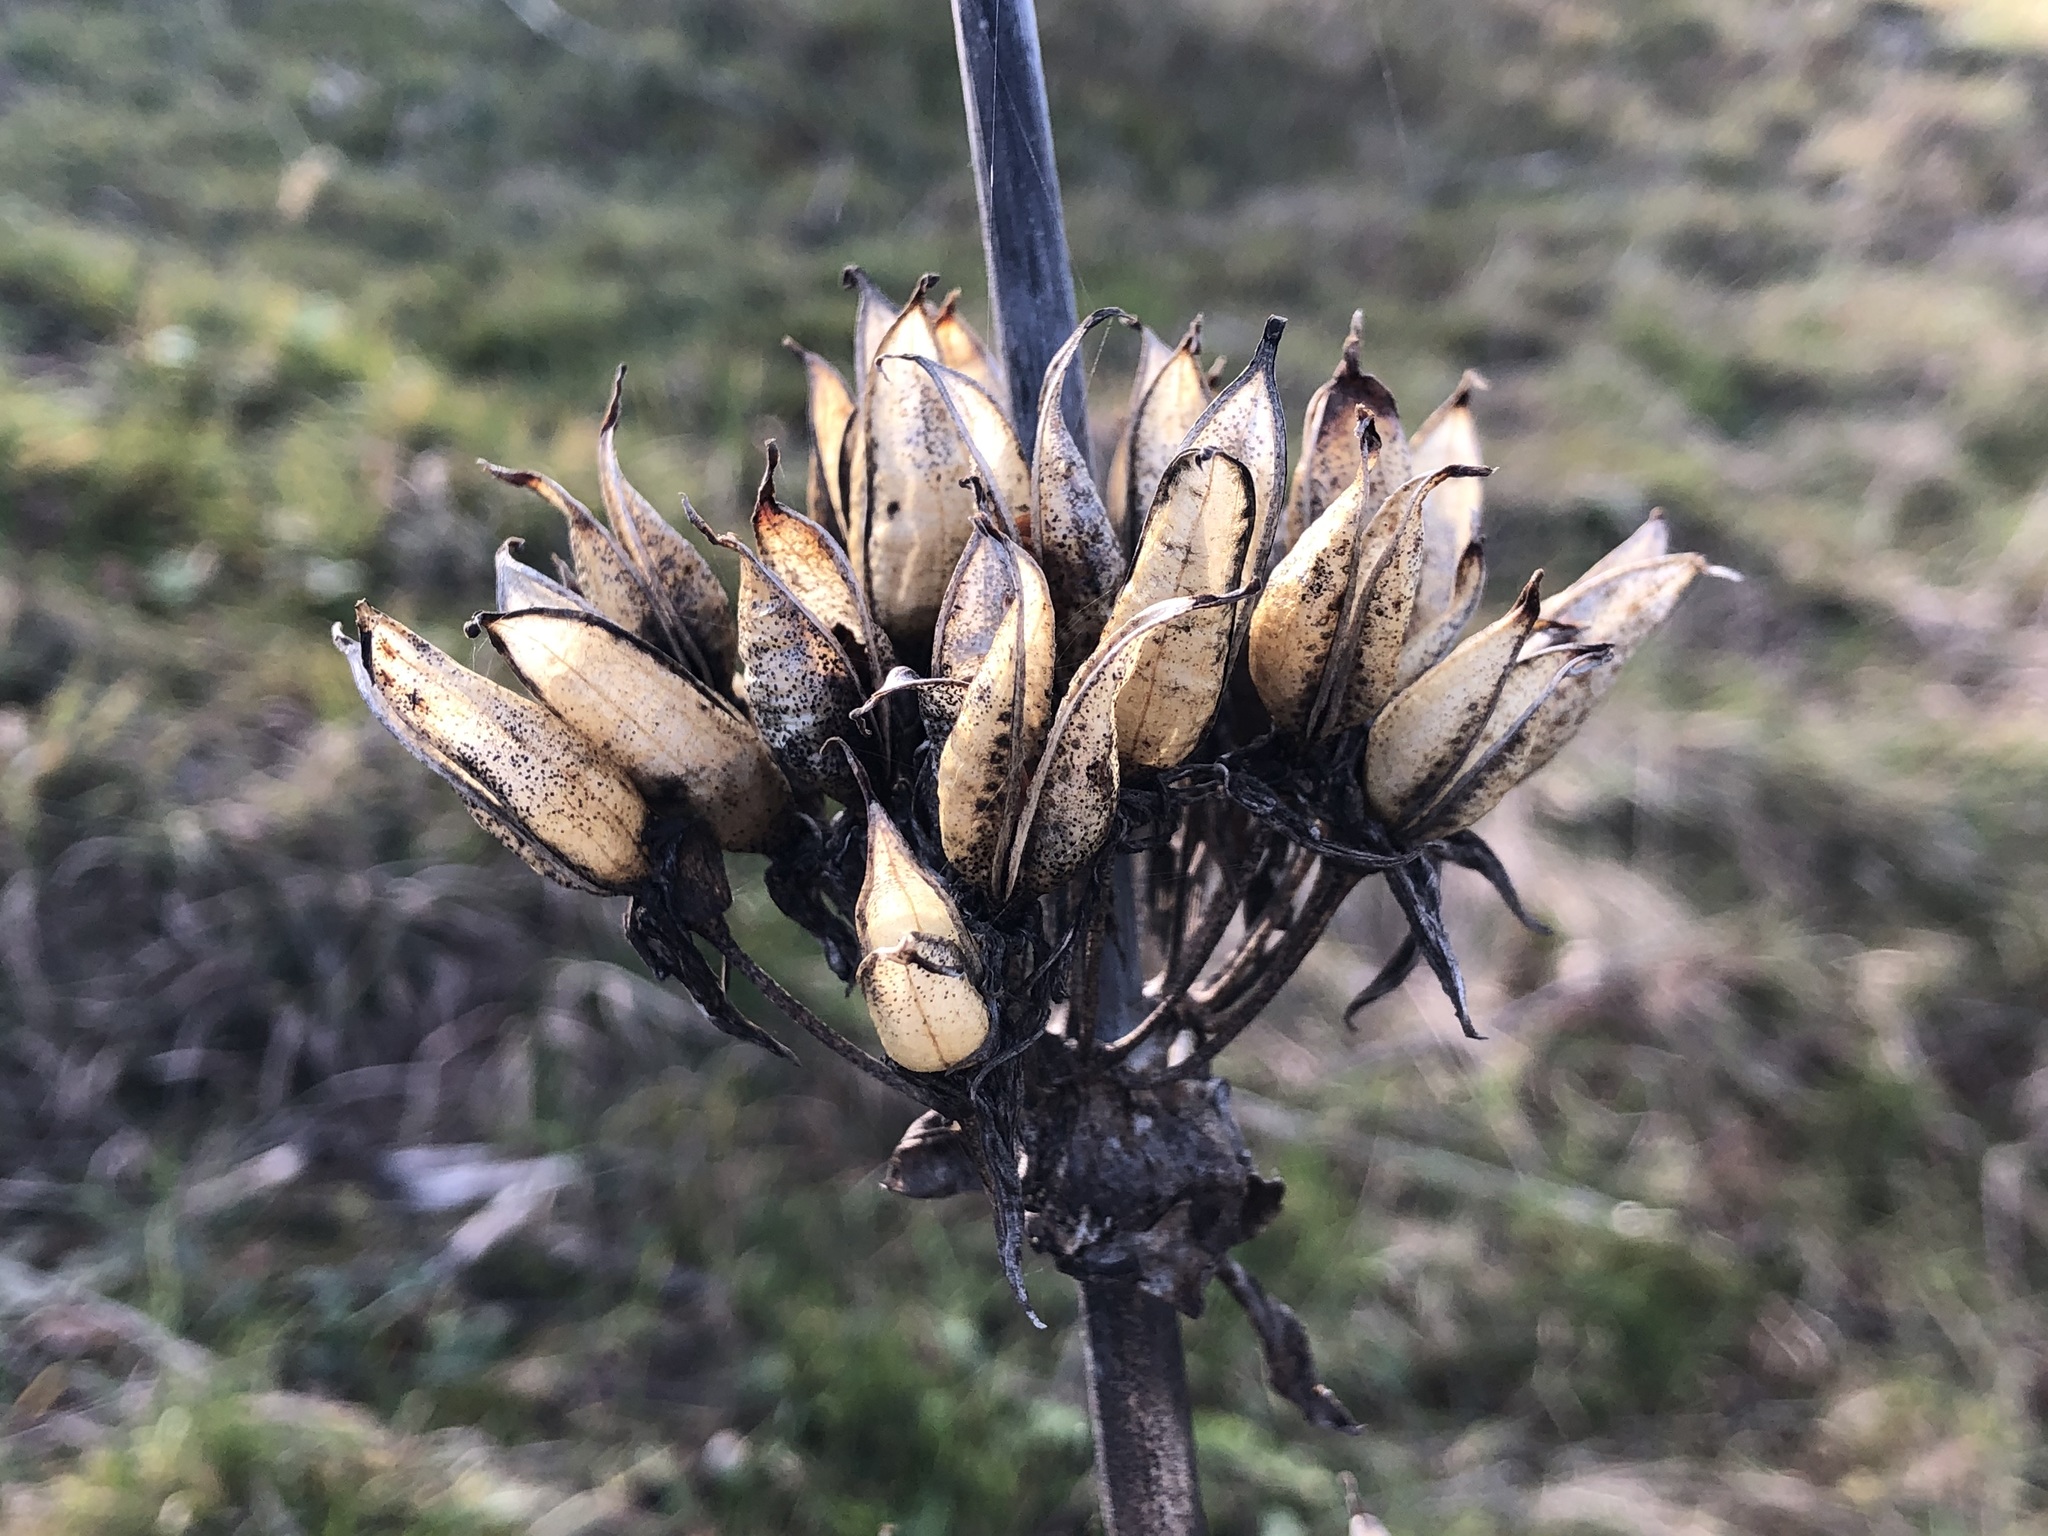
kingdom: Plantae
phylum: Tracheophyta
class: Magnoliopsida
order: Gentianales
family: Gentianaceae
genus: Gentiana
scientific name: Gentiana lutea
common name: Great yellow gentian
